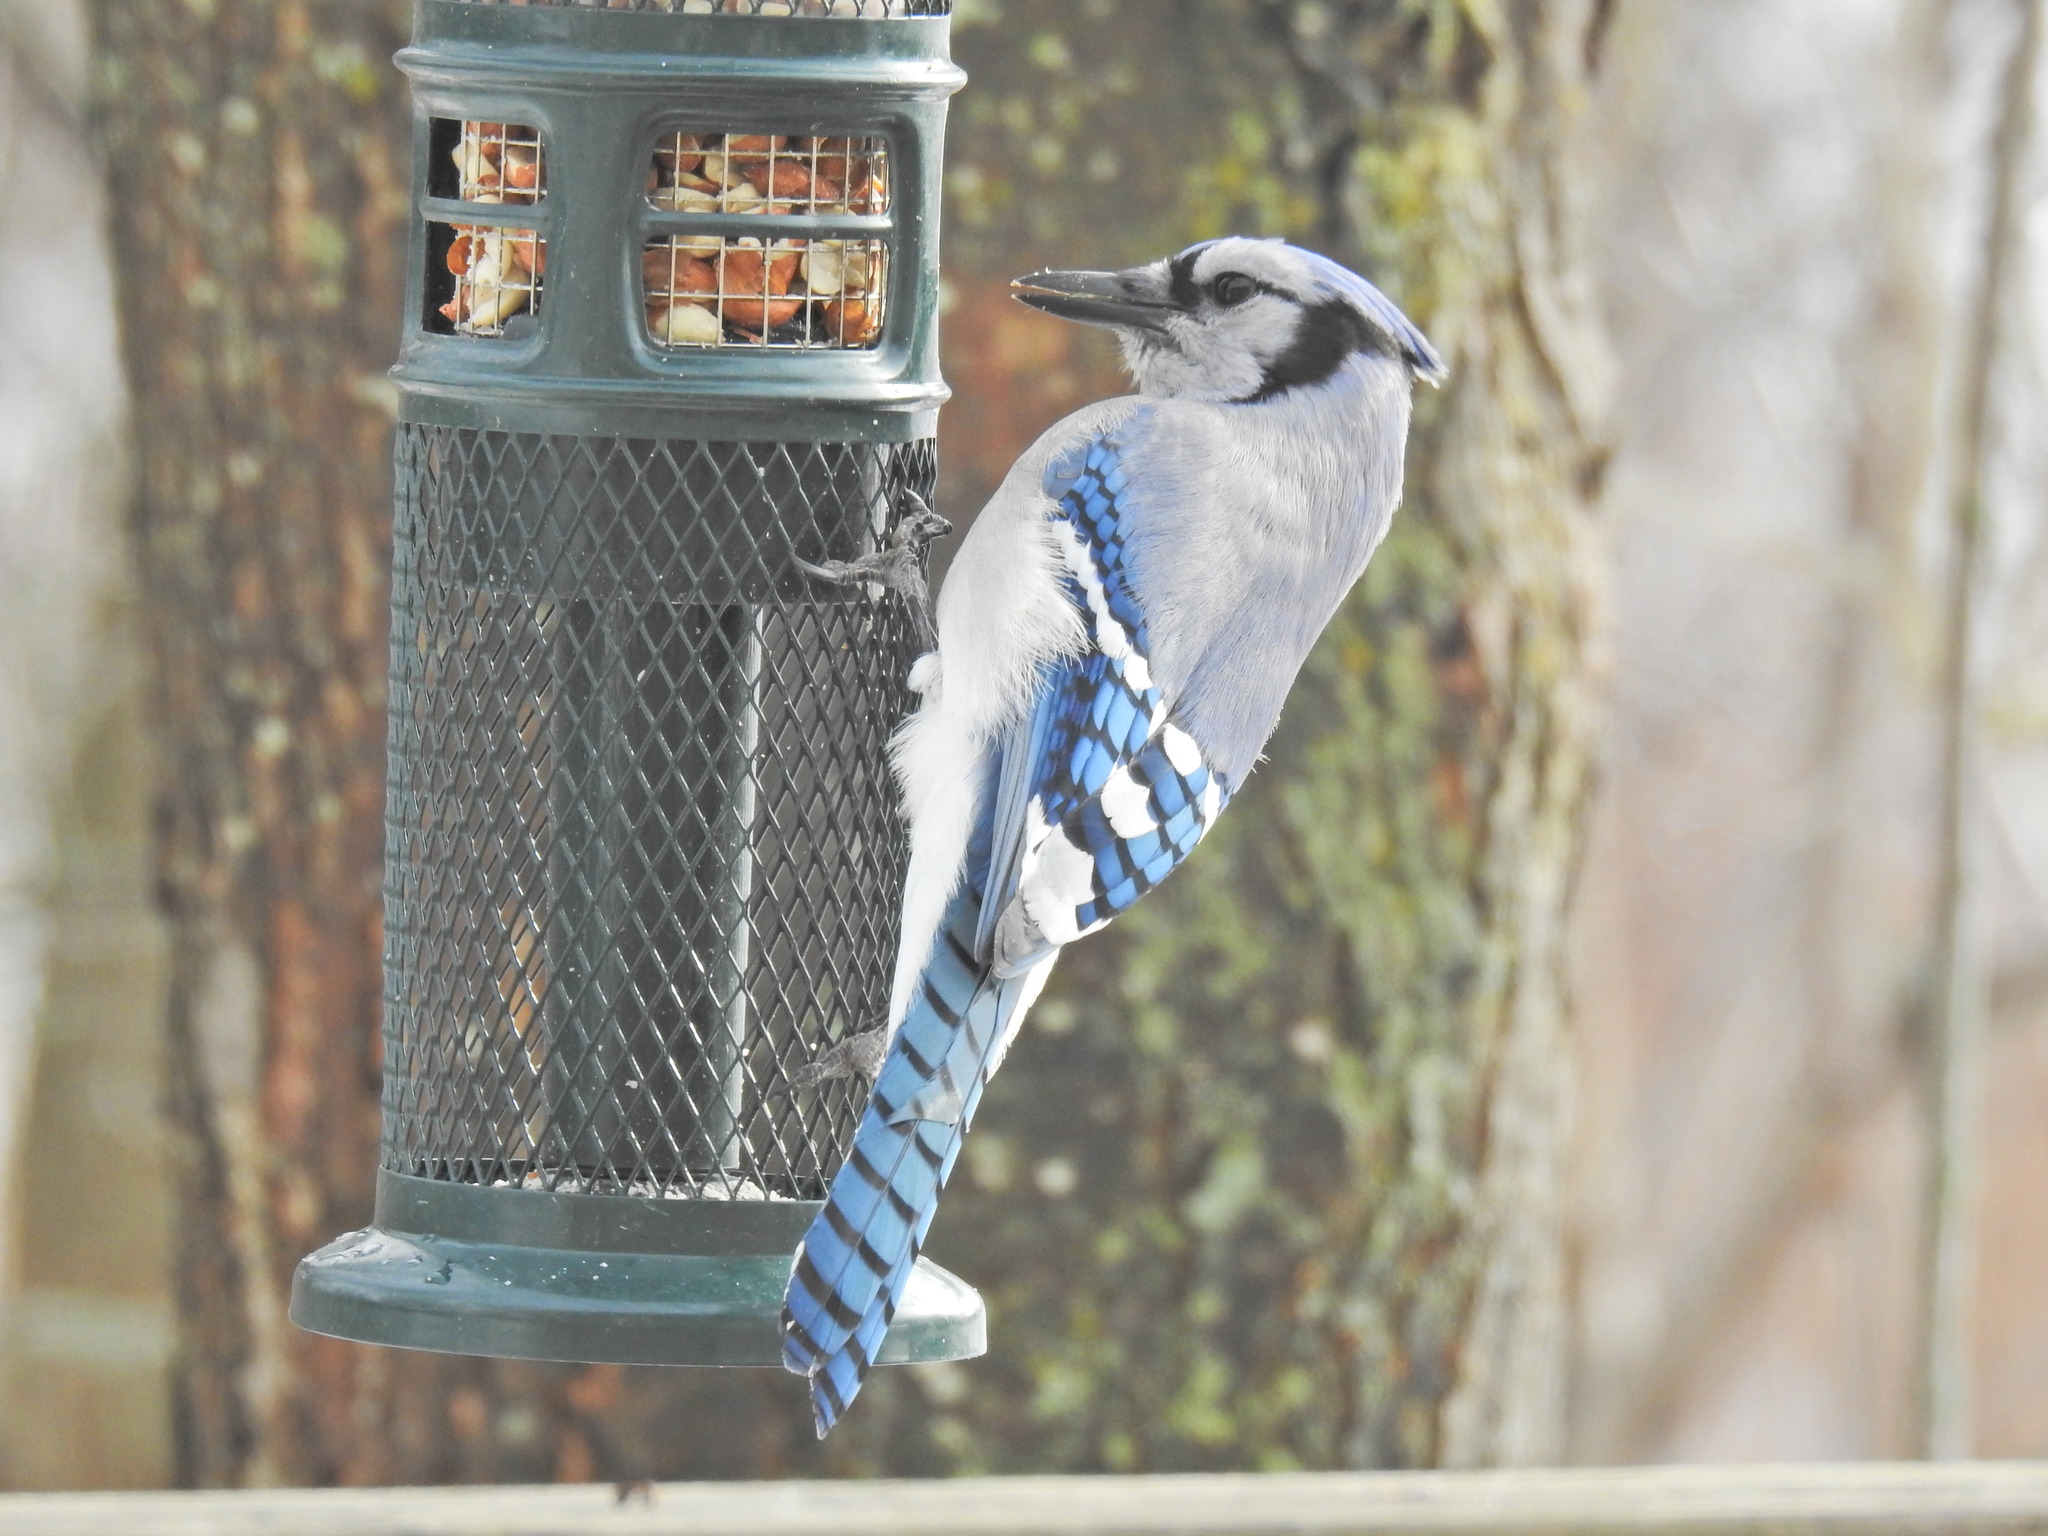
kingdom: Animalia
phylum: Chordata
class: Aves
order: Passeriformes
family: Corvidae
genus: Cyanocitta
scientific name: Cyanocitta cristata
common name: Blue jay
